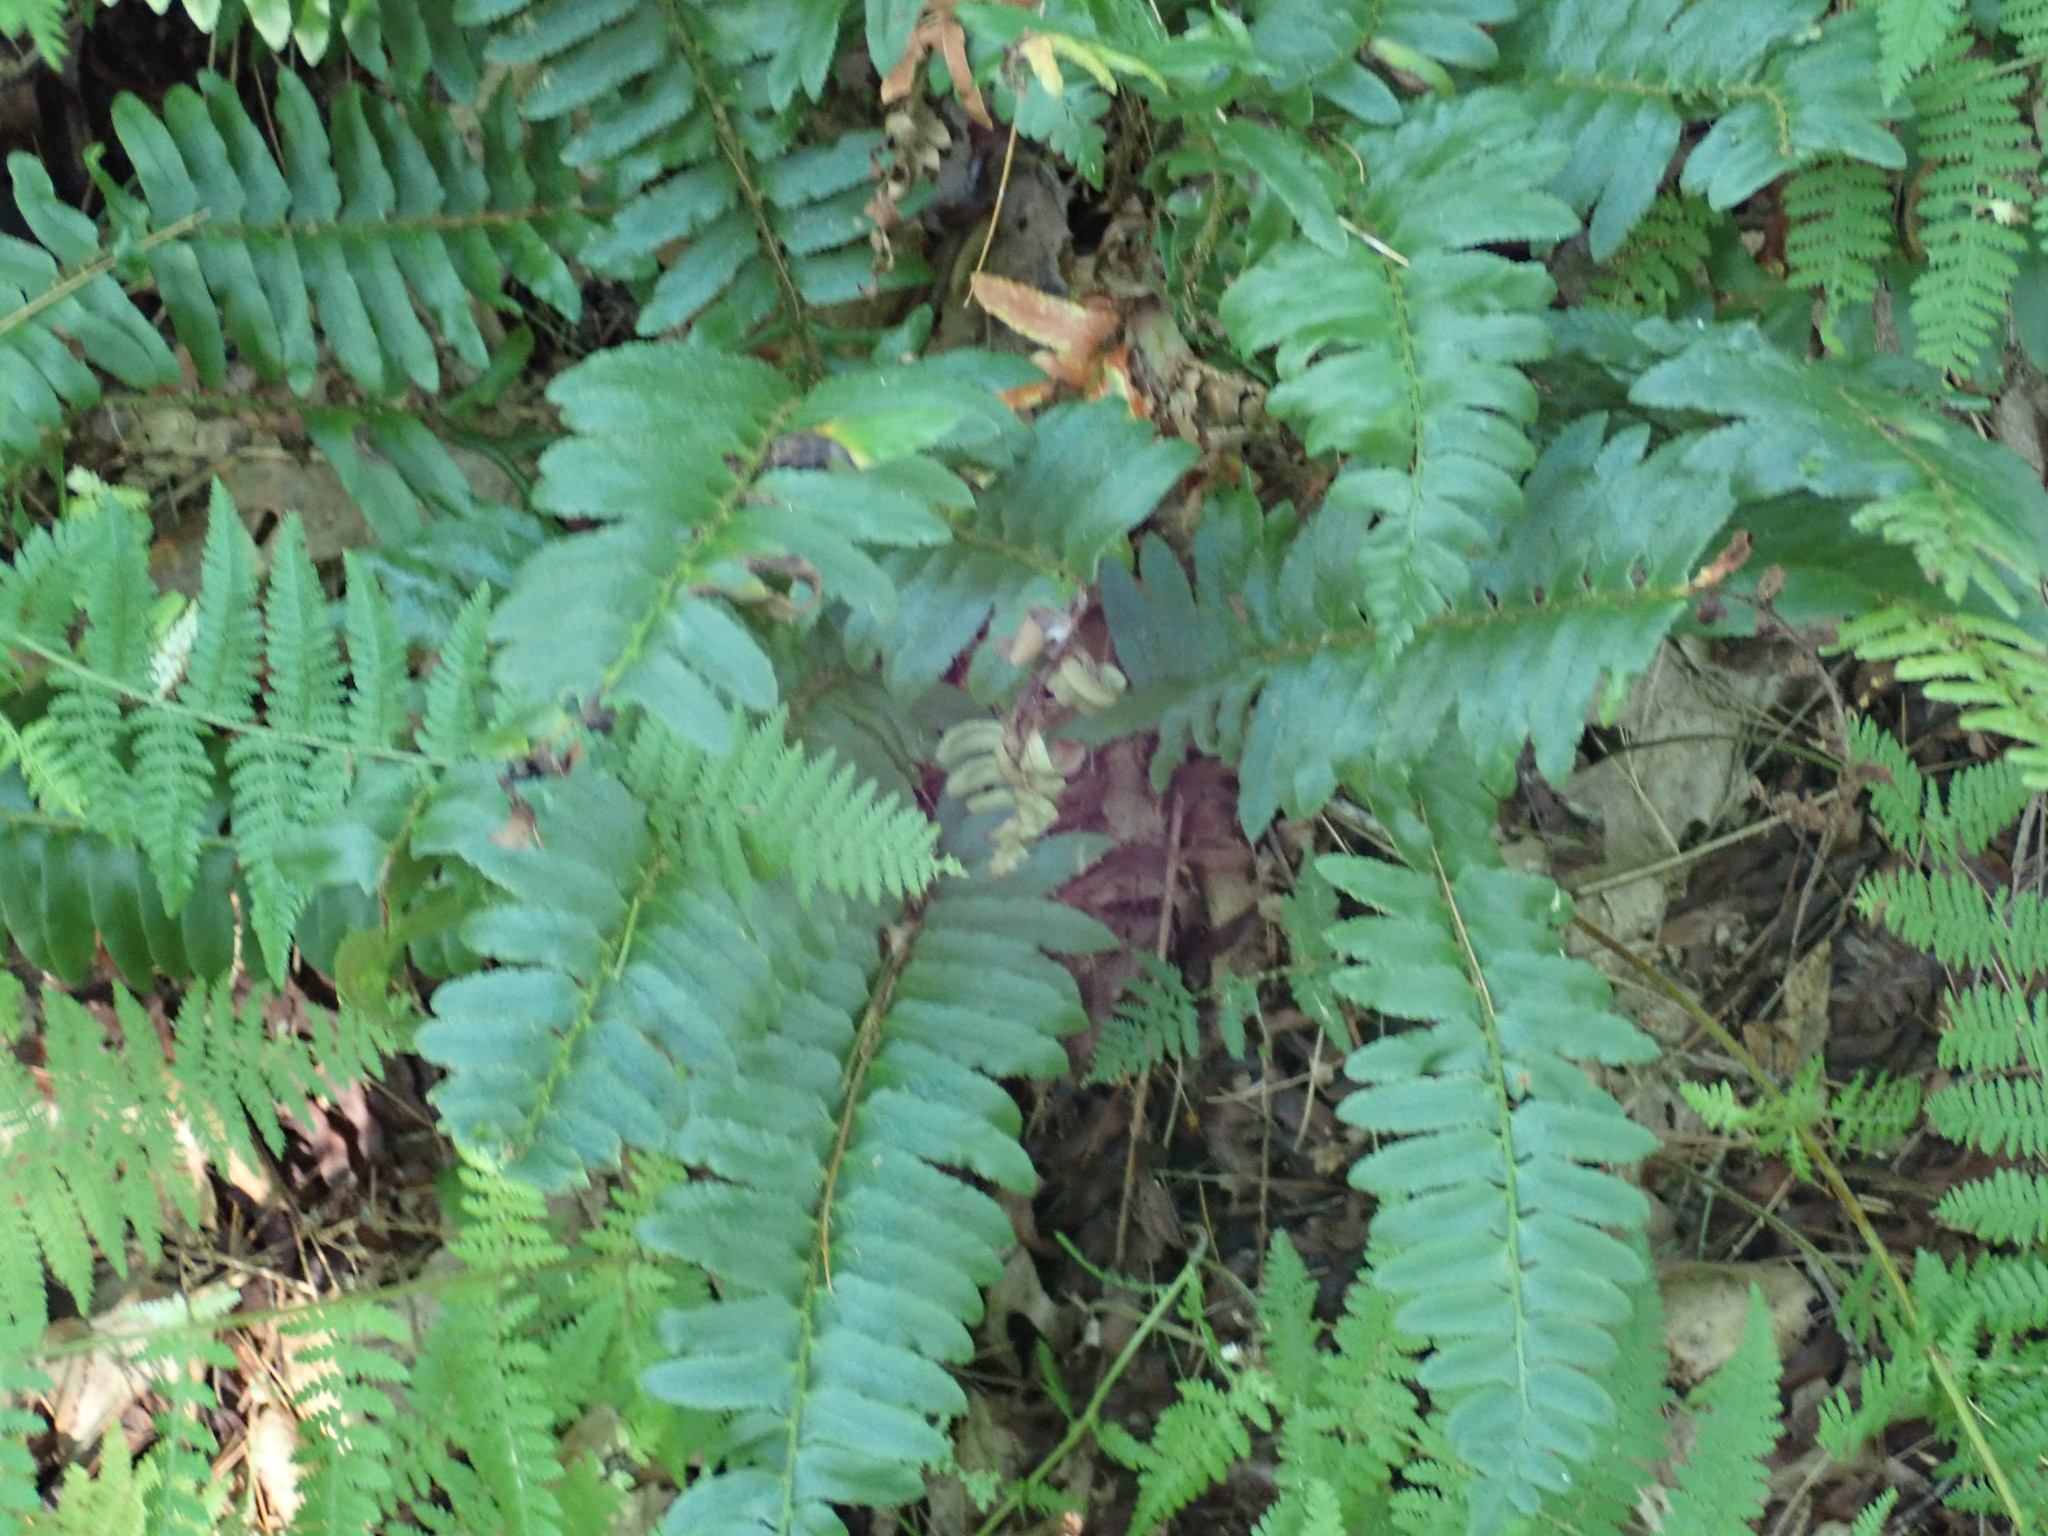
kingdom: Plantae
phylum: Tracheophyta
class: Polypodiopsida
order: Polypodiales
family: Dryopteridaceae
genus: Polystichum
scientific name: Polystichum acrostichoides
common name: Christmas fern
